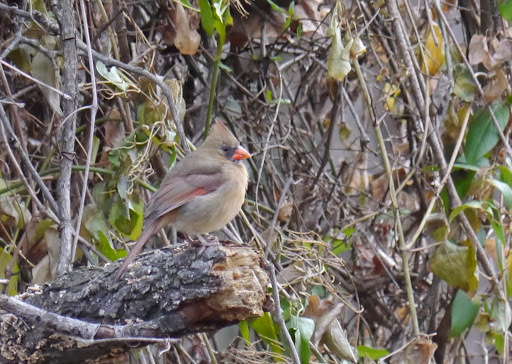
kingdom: Animalia
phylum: Chordata
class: Aves
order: Passeriformes
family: Cardinalidae
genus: Cardinalis
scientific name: Cardinalis cardinalis
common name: Northern cardinal
